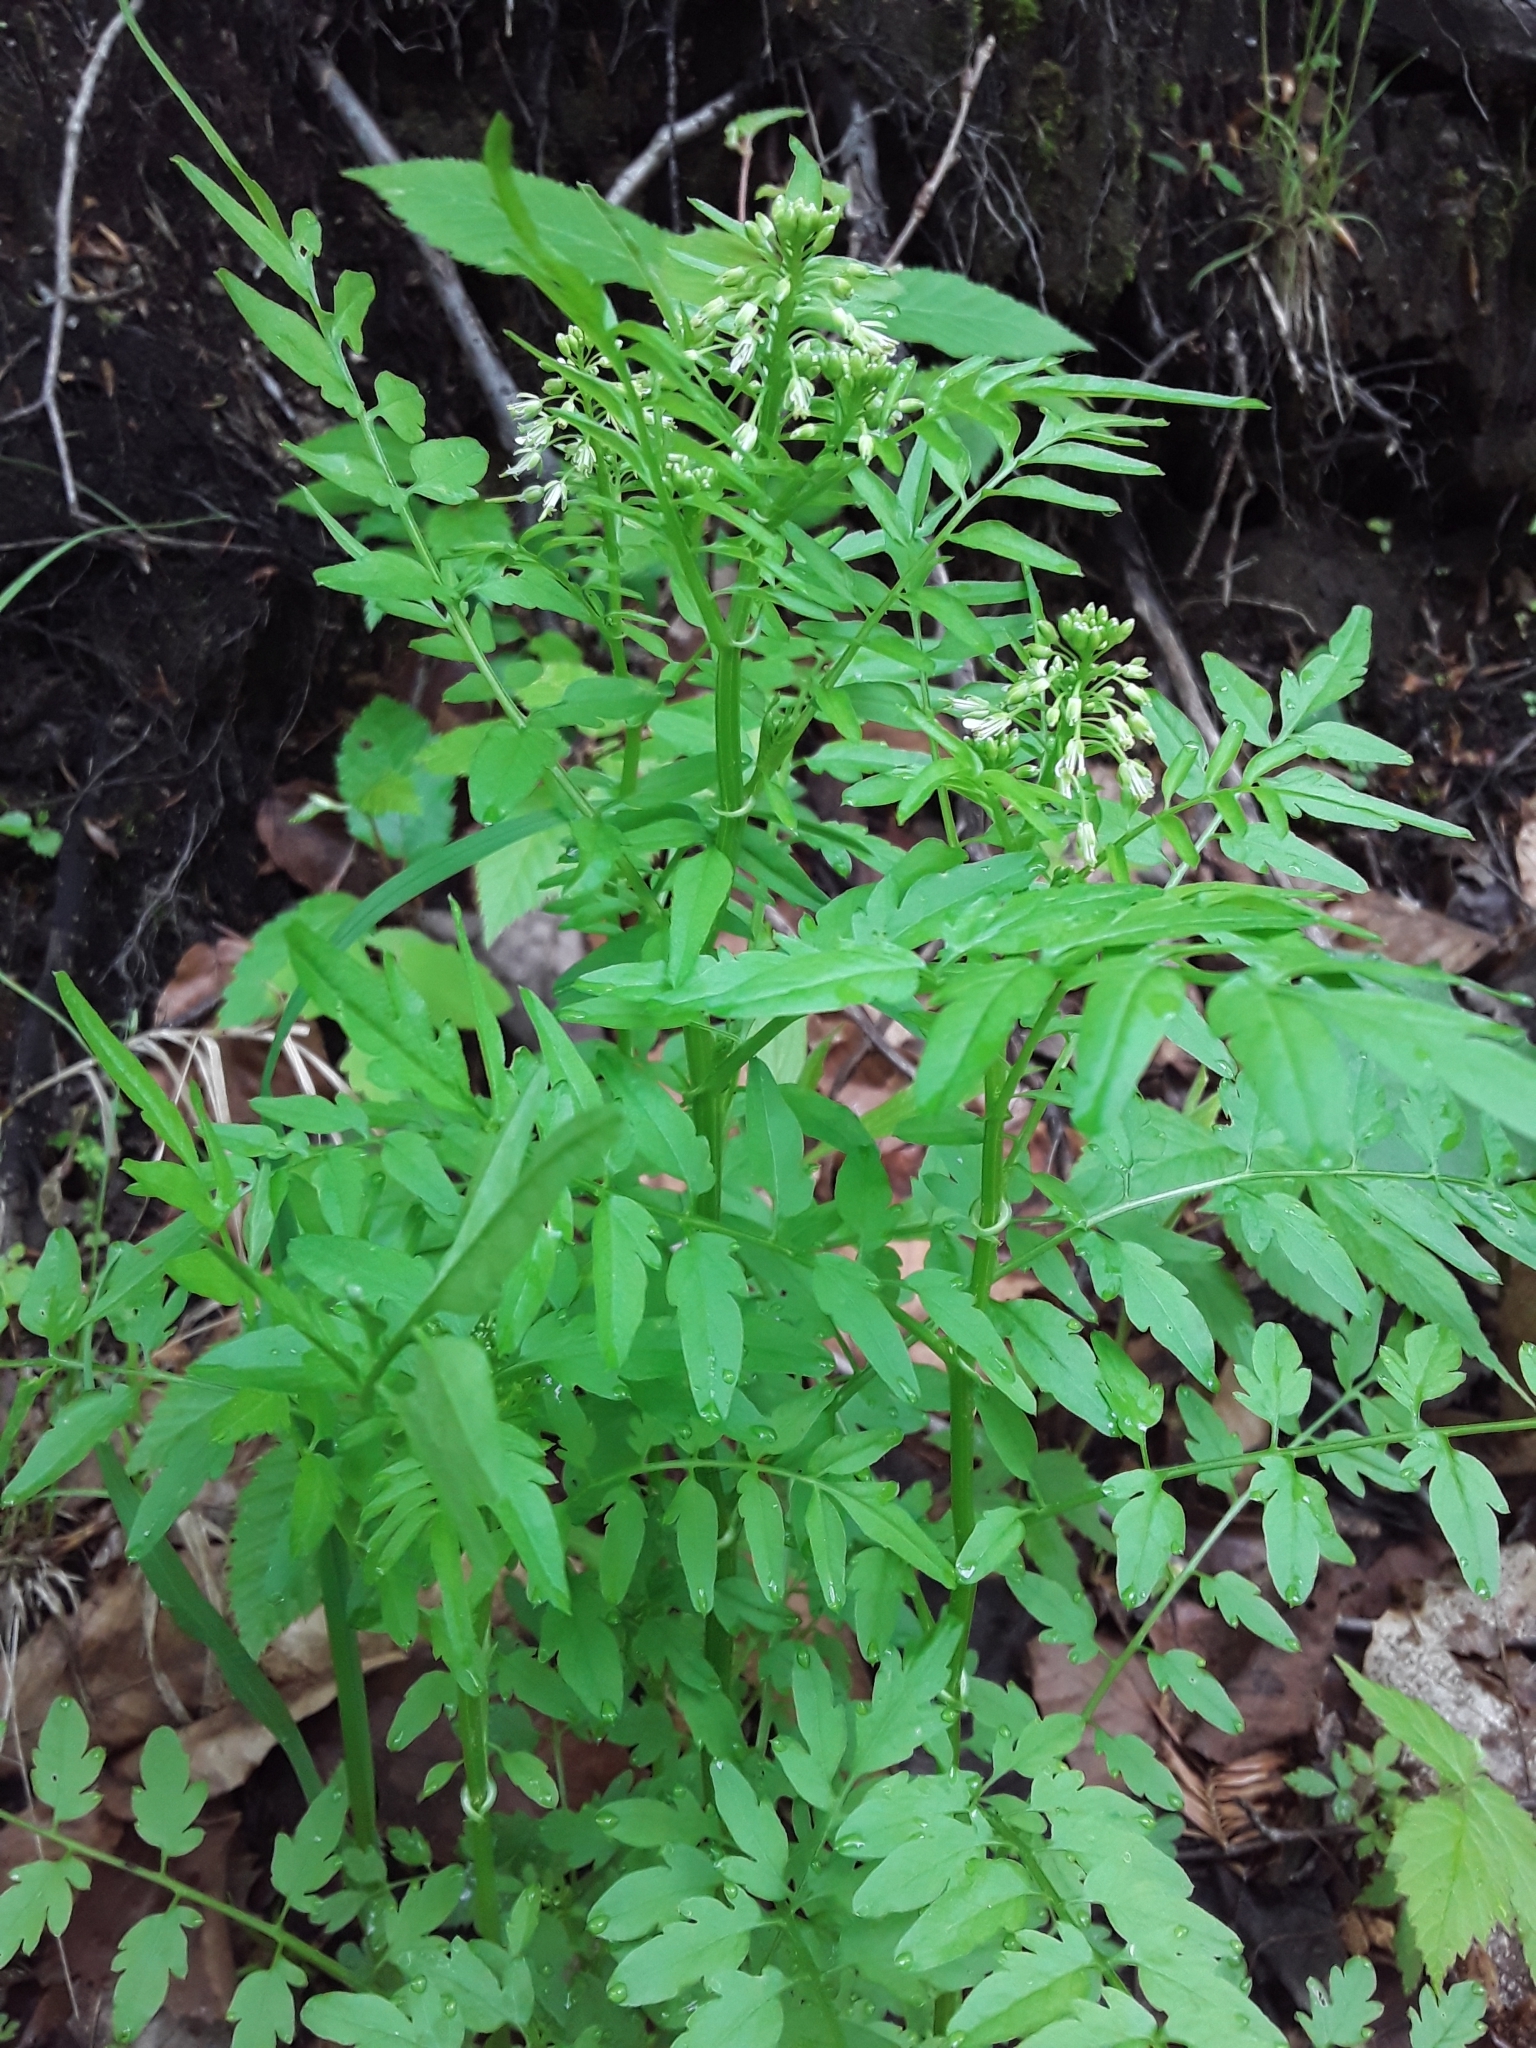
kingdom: Plantae
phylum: Tracheophyta
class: Magnoliopsida
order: Brassicales
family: Brassicaceae
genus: Cardamine
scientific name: Cardamine impatiens
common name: Narrow-leaved bitter-cress
